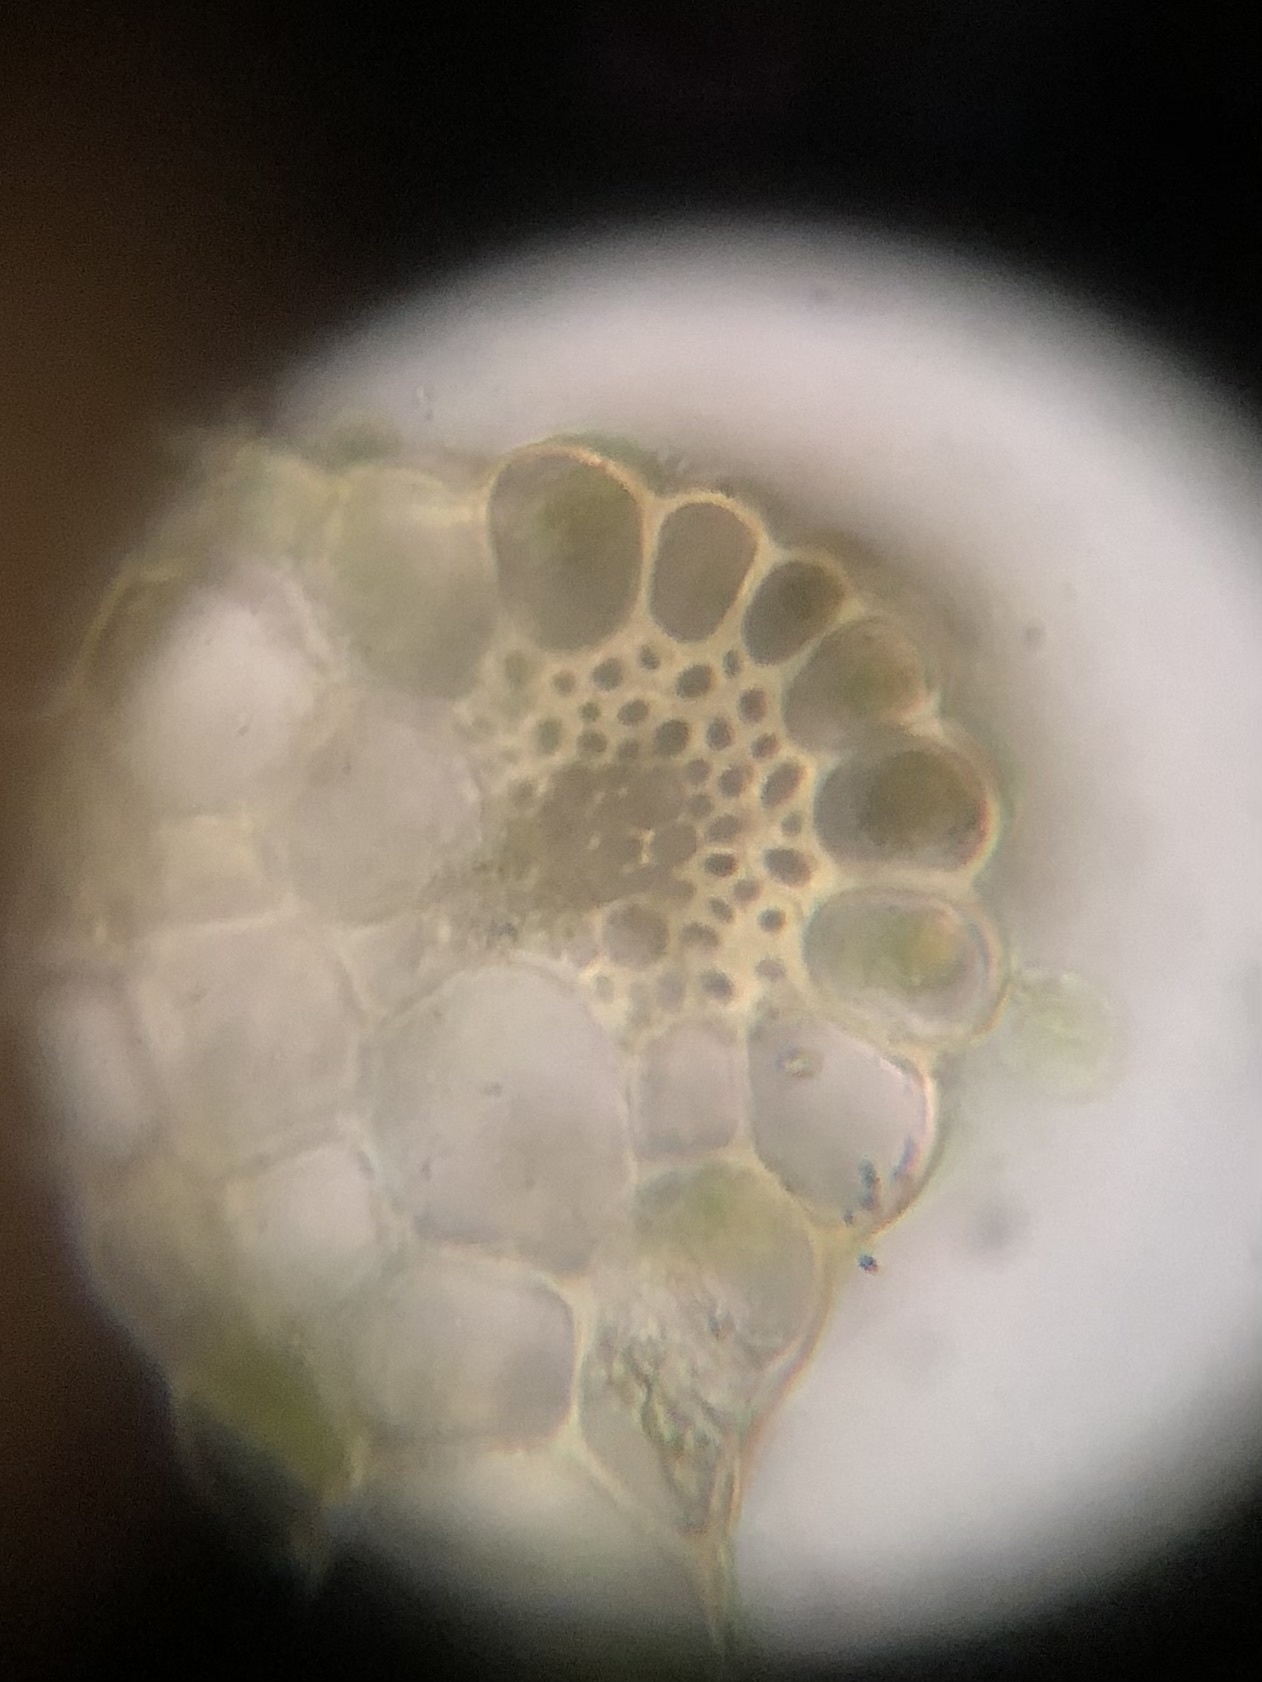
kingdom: Plantae
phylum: Bryophyta
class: Bryopsida
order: Bryales
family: Bryaceae
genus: Rhodobryum
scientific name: Rhodobryum ontariense
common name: Ontario rhodobryum moss
